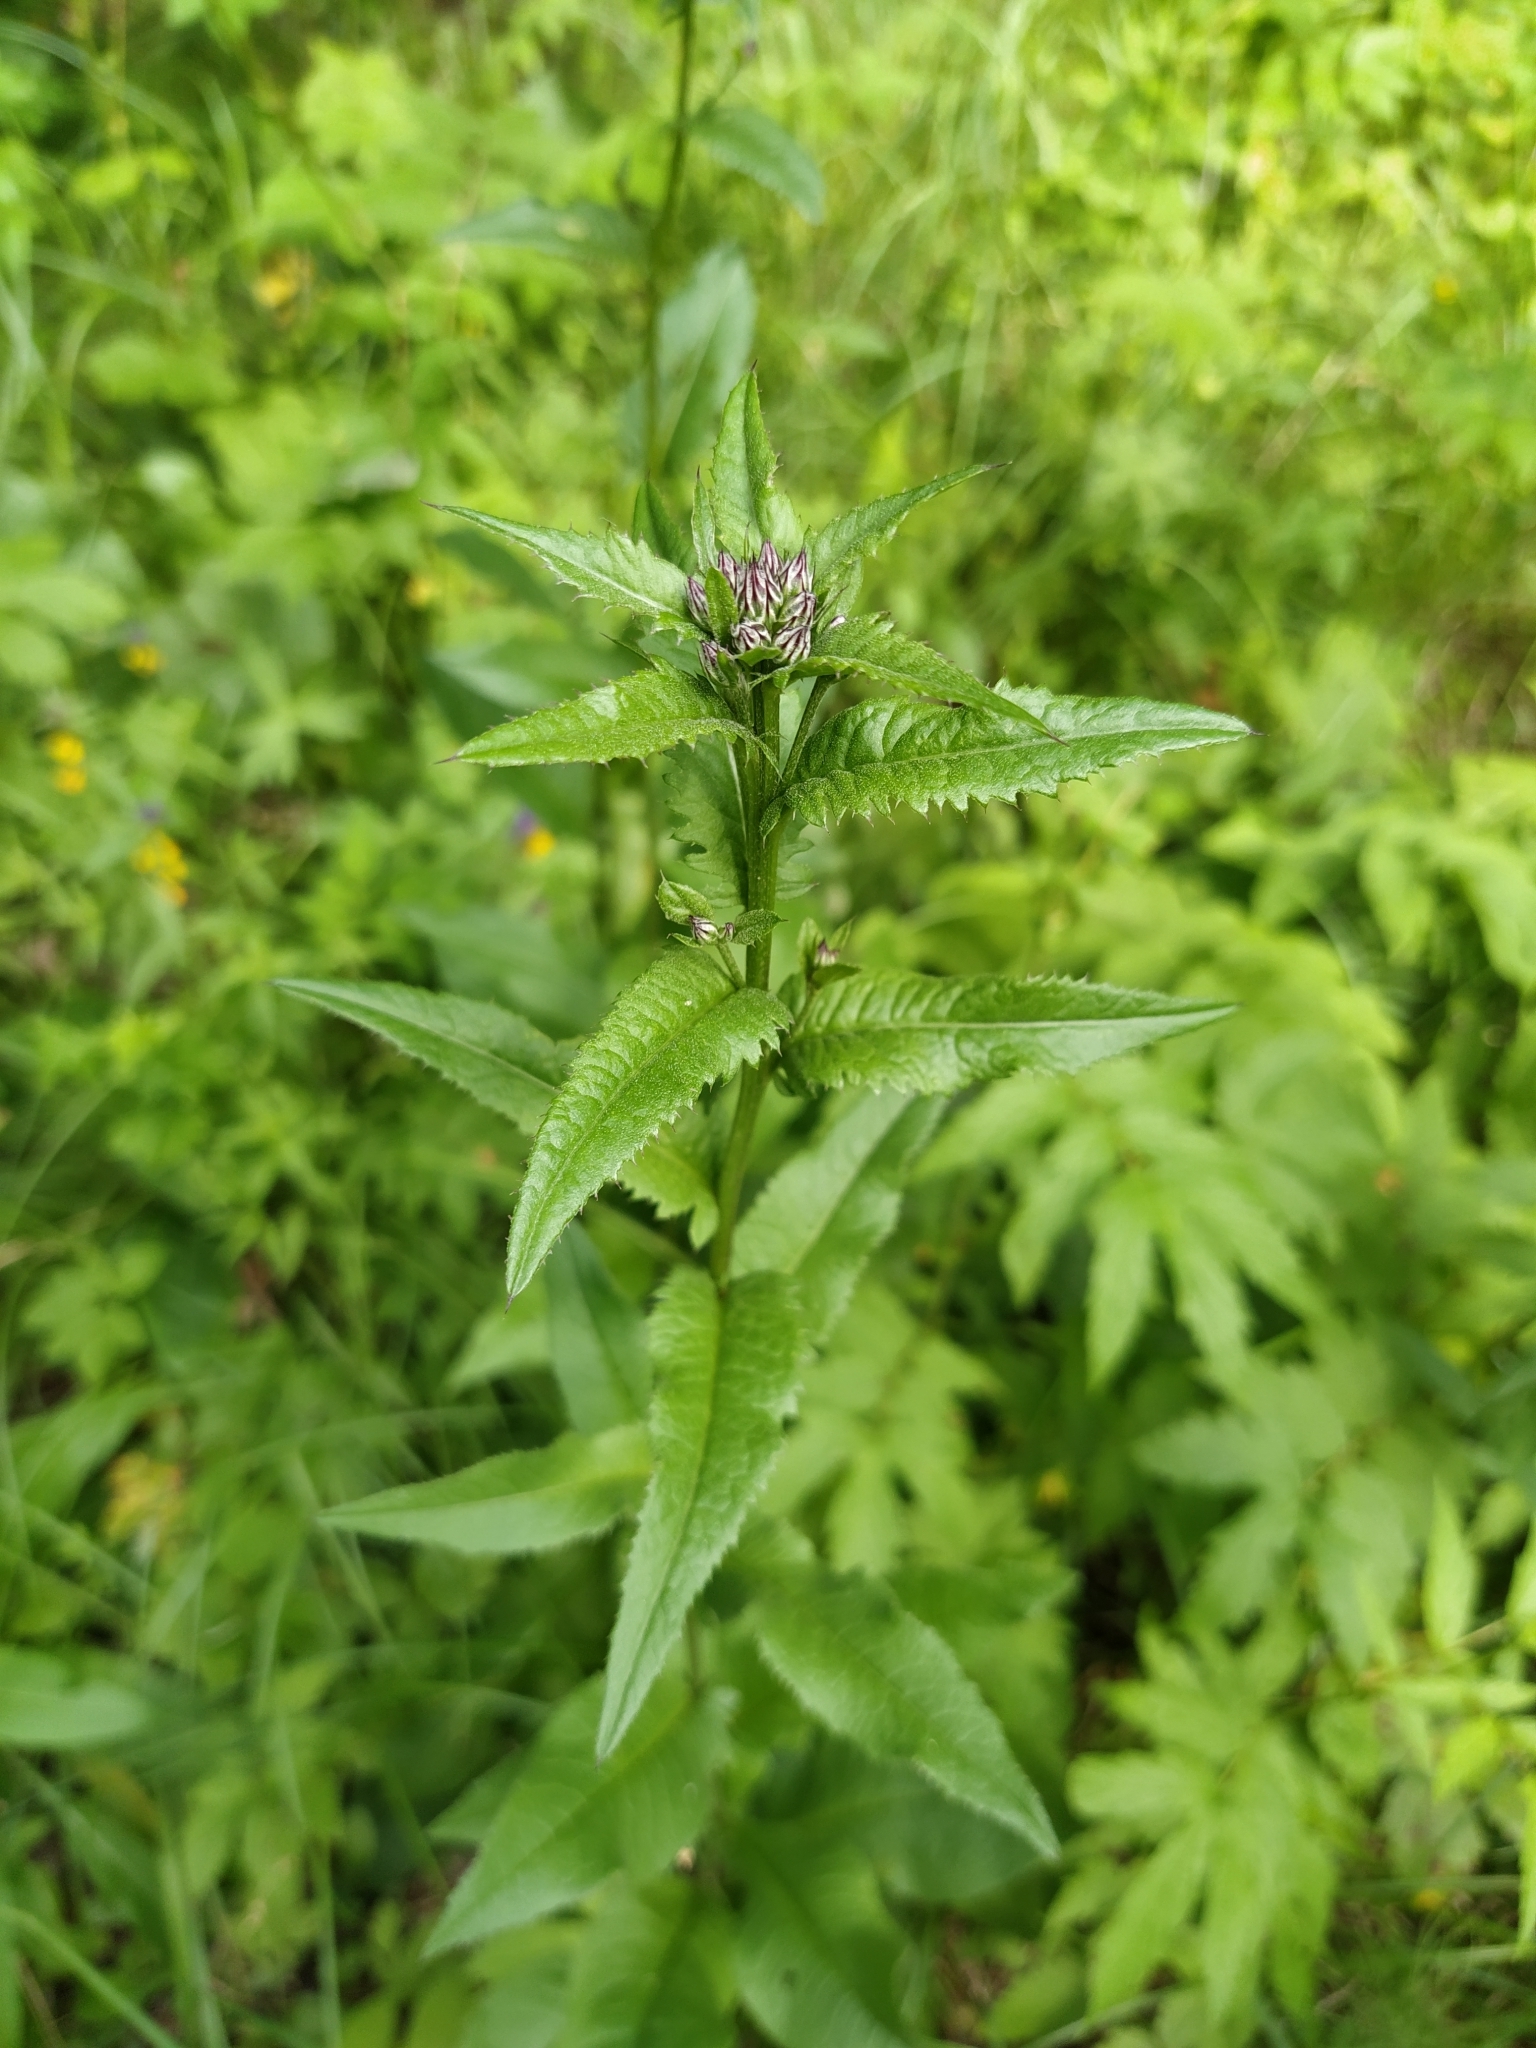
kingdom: Plantae
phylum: Tracheophyta
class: Magnoliopsida
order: Asterales
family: Asteraceae
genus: Serratula
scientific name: Serratula tinctoria
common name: Saw-wort
